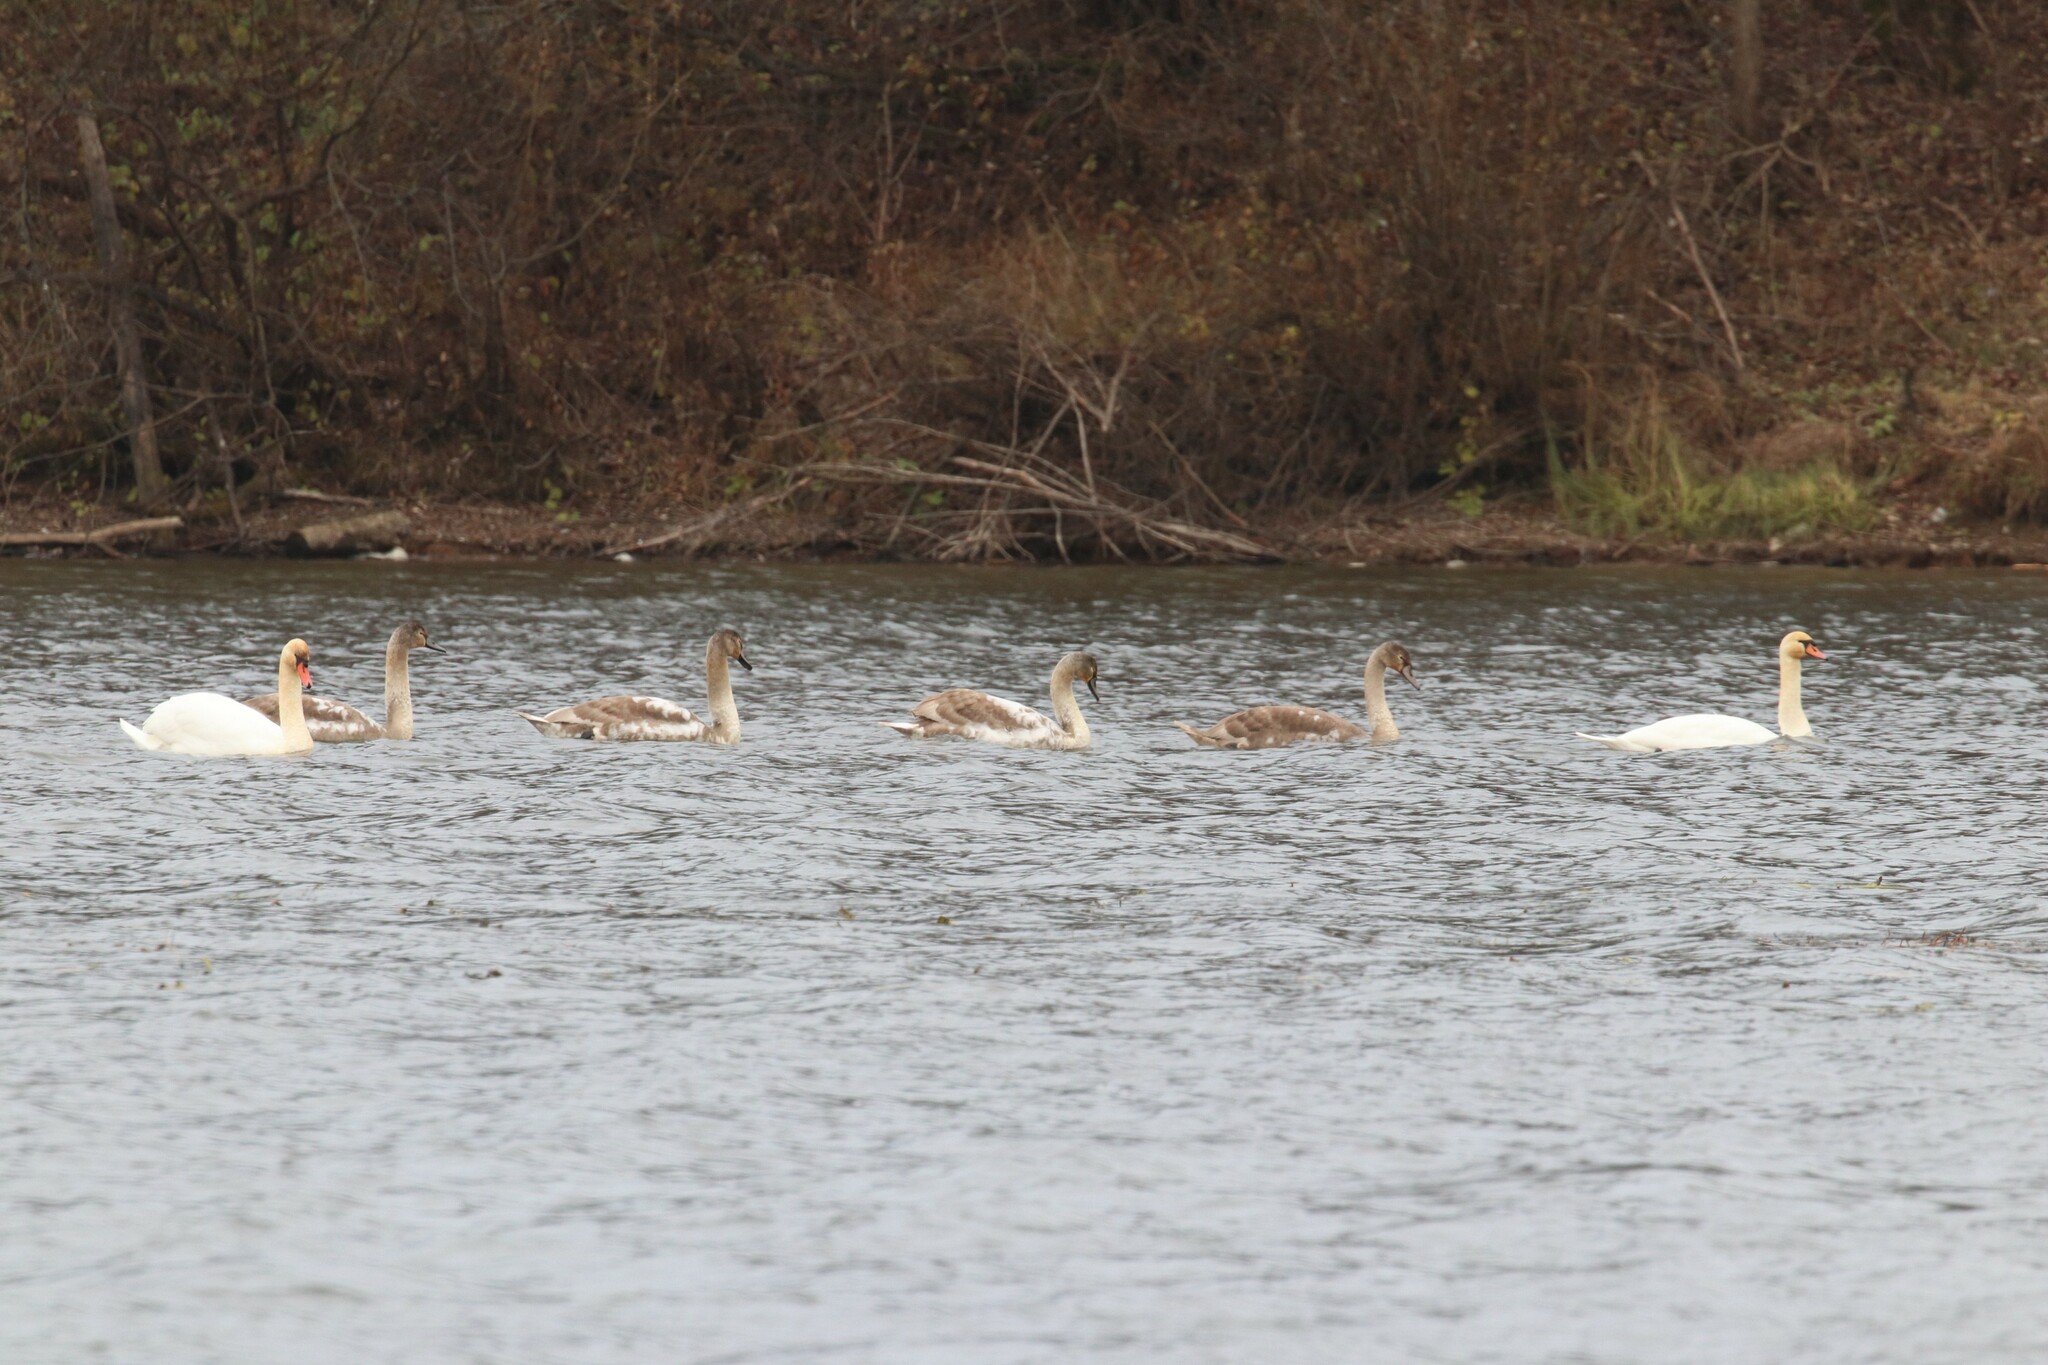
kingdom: Animalia
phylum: Chordata
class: Aves
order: Anseriformes
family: Anatidae
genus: Cygnus
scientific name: Cygnus olor
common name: Mute swan
